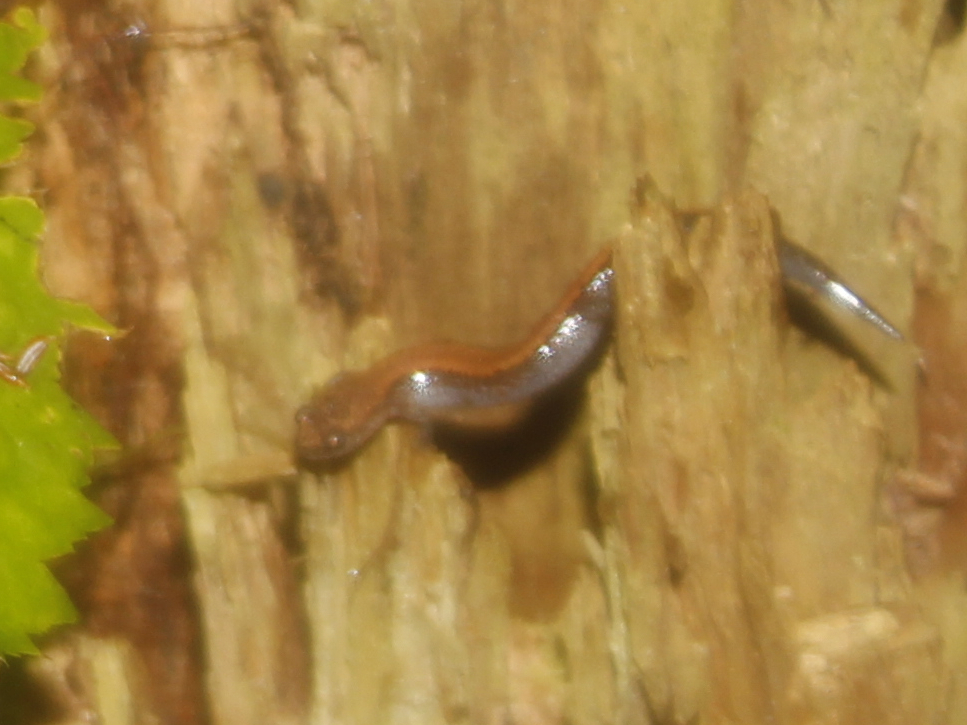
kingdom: Animalia
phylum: Chordata
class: Amphibia
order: Caudata
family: Plethodontidae
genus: Plethodon
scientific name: Plethodon cinereus
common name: Redback salamander
